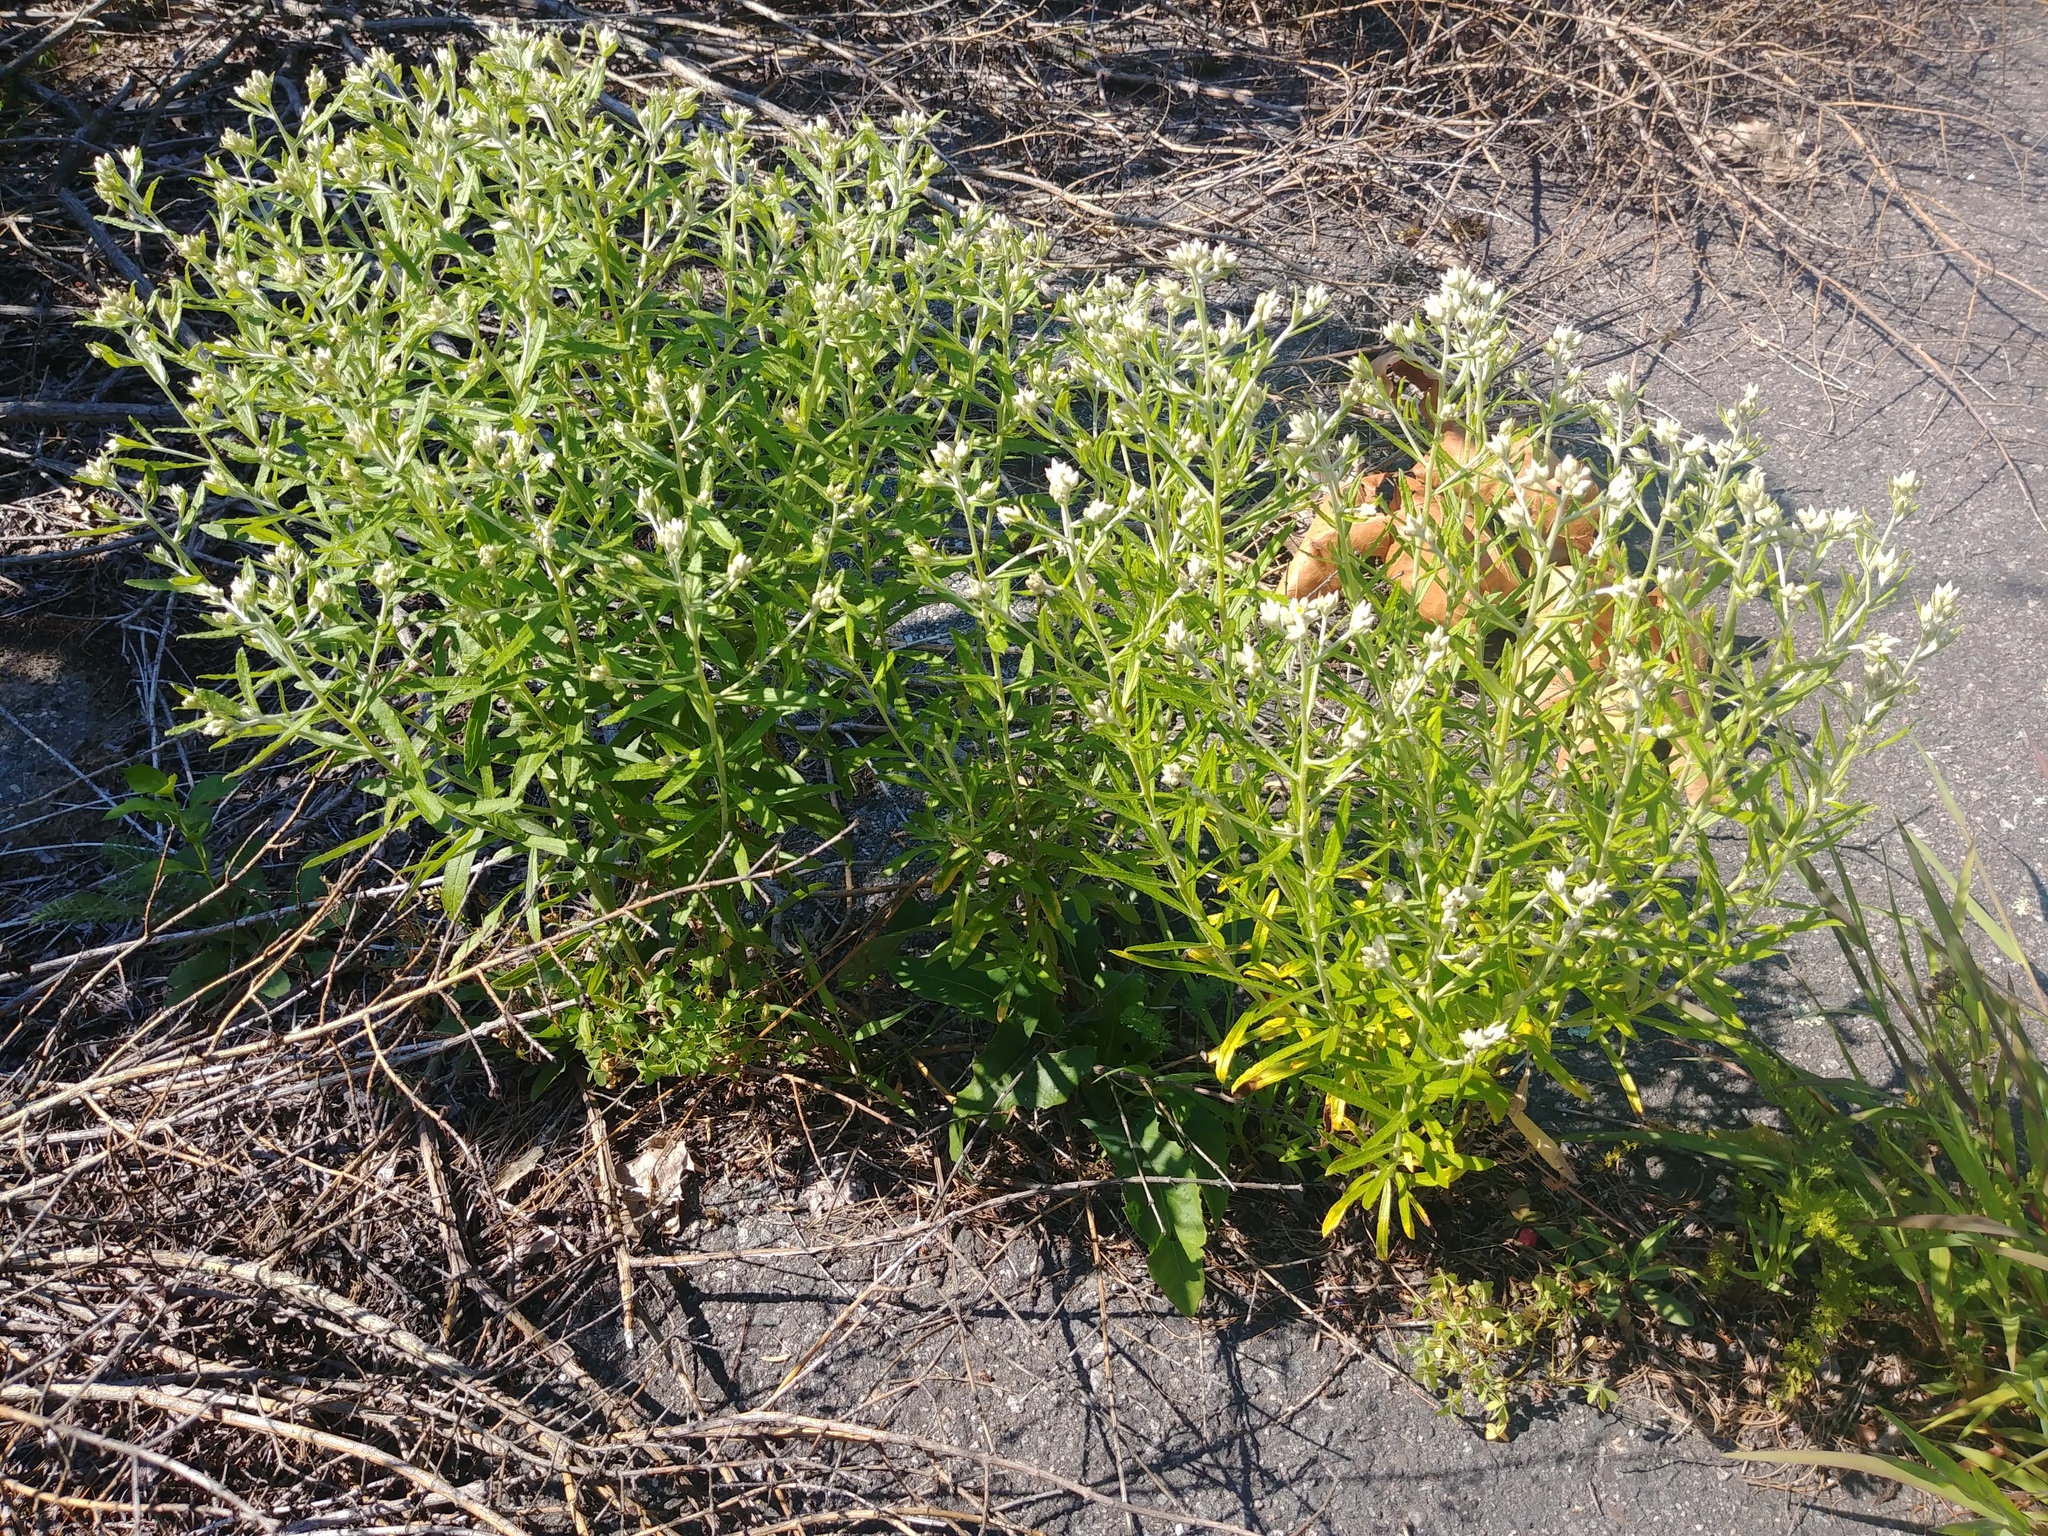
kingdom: Plantae
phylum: Tracheophyta
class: Magnoliopsida
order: Asterales
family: Asteraceae
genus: Pseudognaphalium
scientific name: Pseudognaphalium obtusifolium
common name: Eastern rabbit-tobacco
